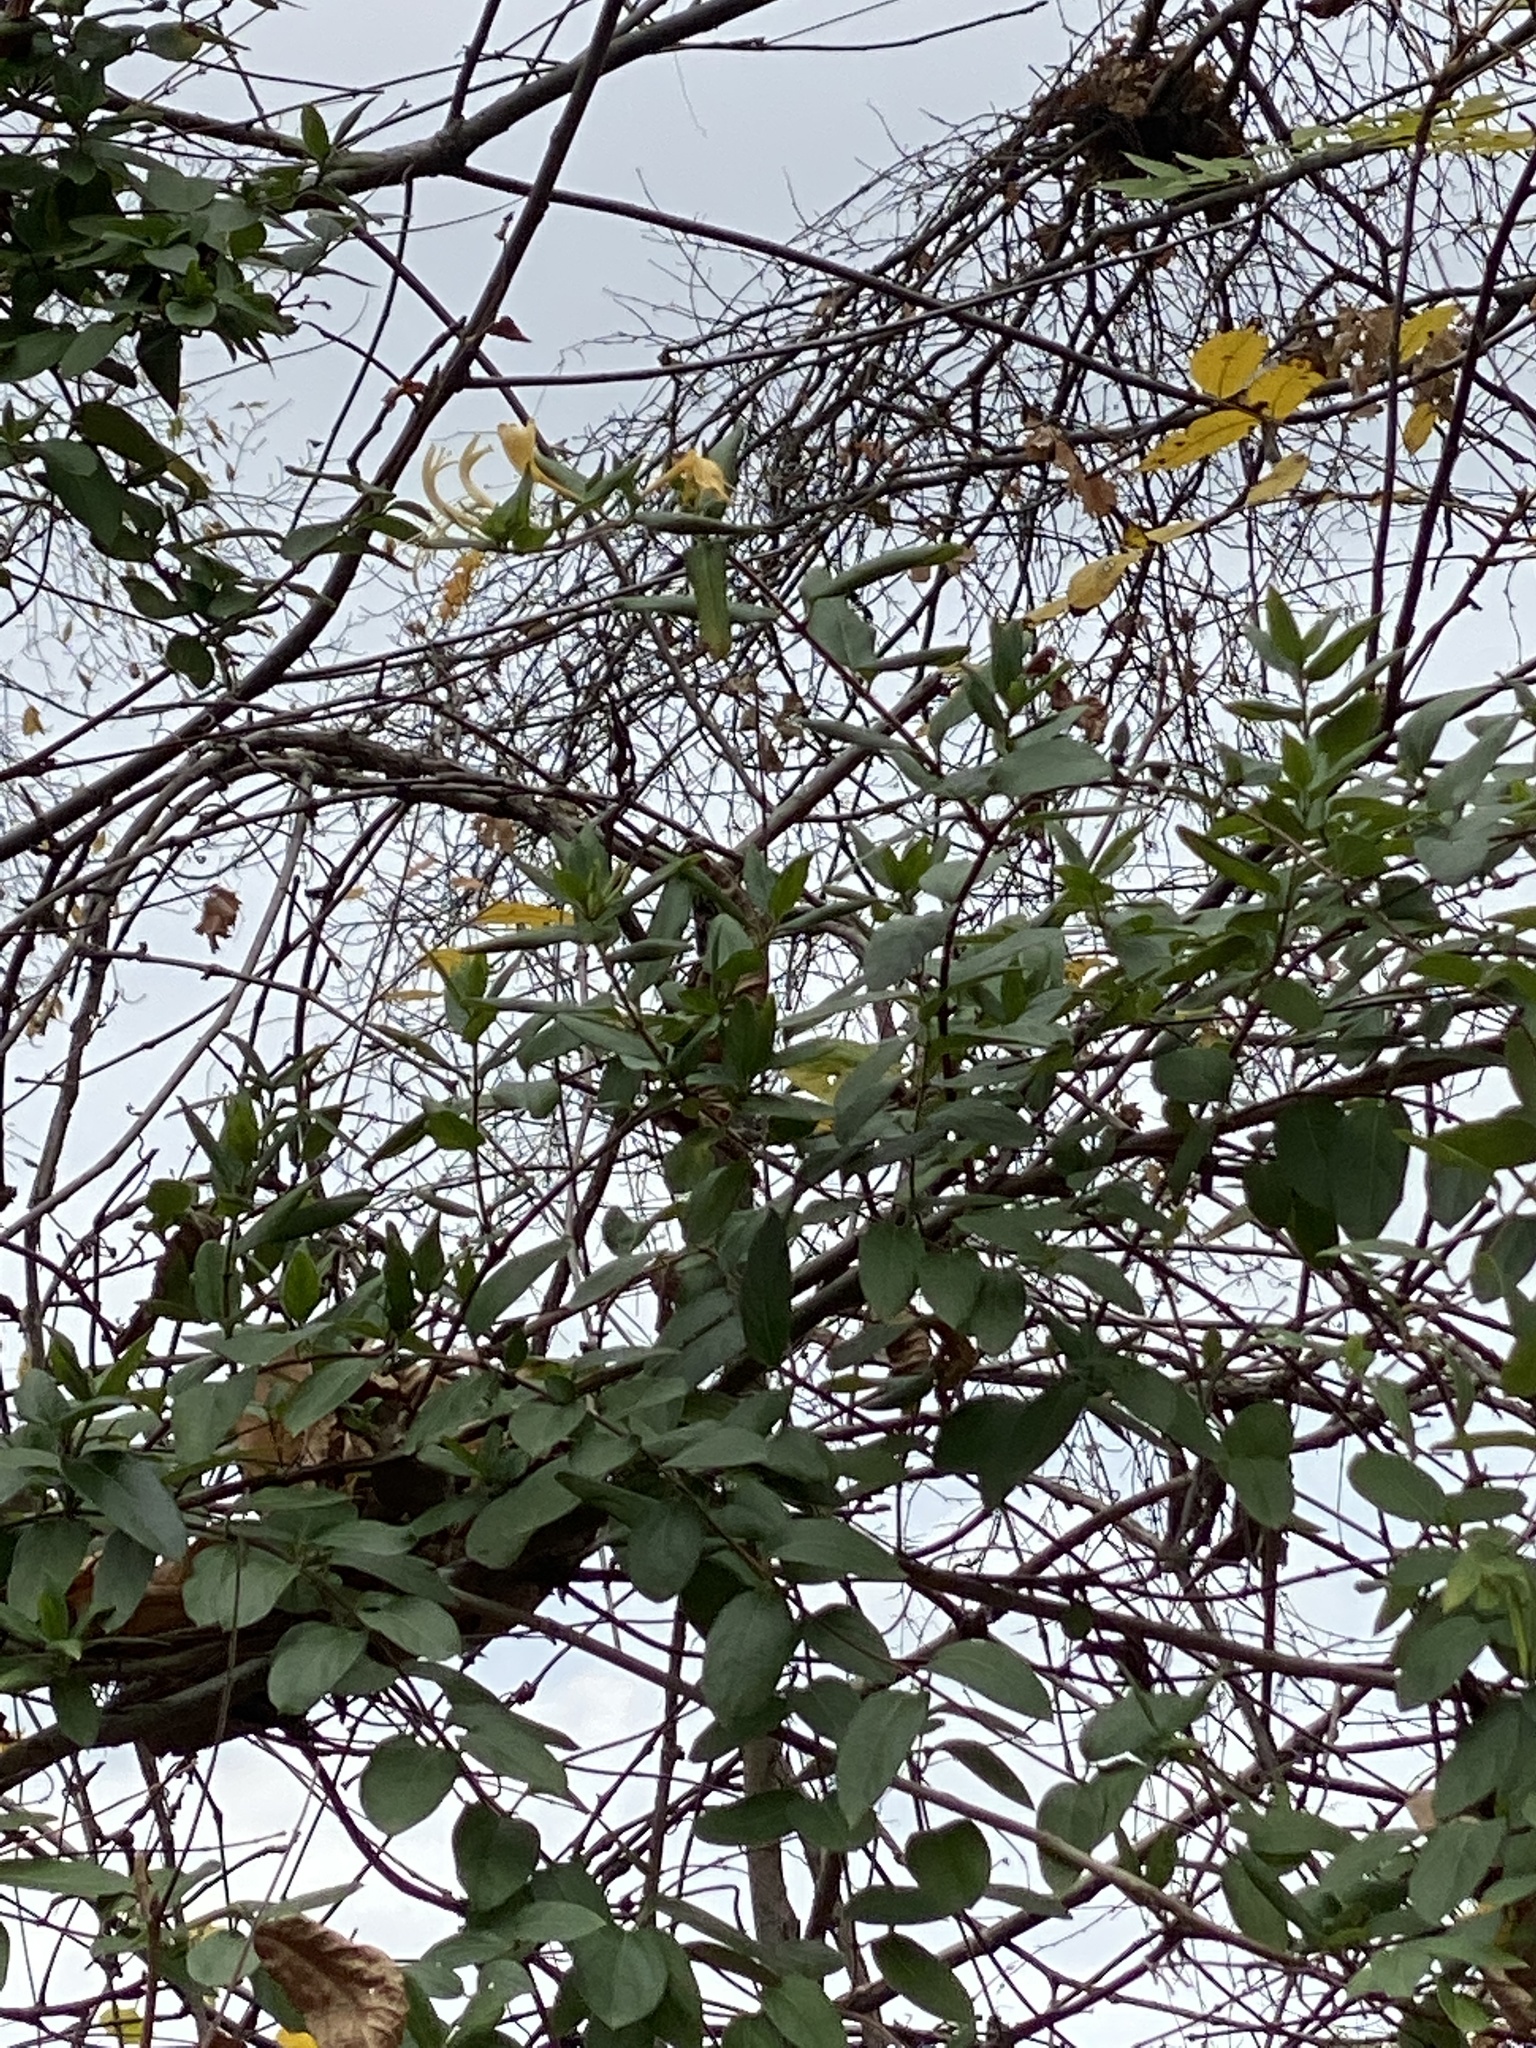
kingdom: Plantae
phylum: Tracheophyta
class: Magnoliopsida
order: Dipsacales
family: Caprifoliaceae
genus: Lonicera
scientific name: Lonicera japonica
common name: Japanese honeysuckle
